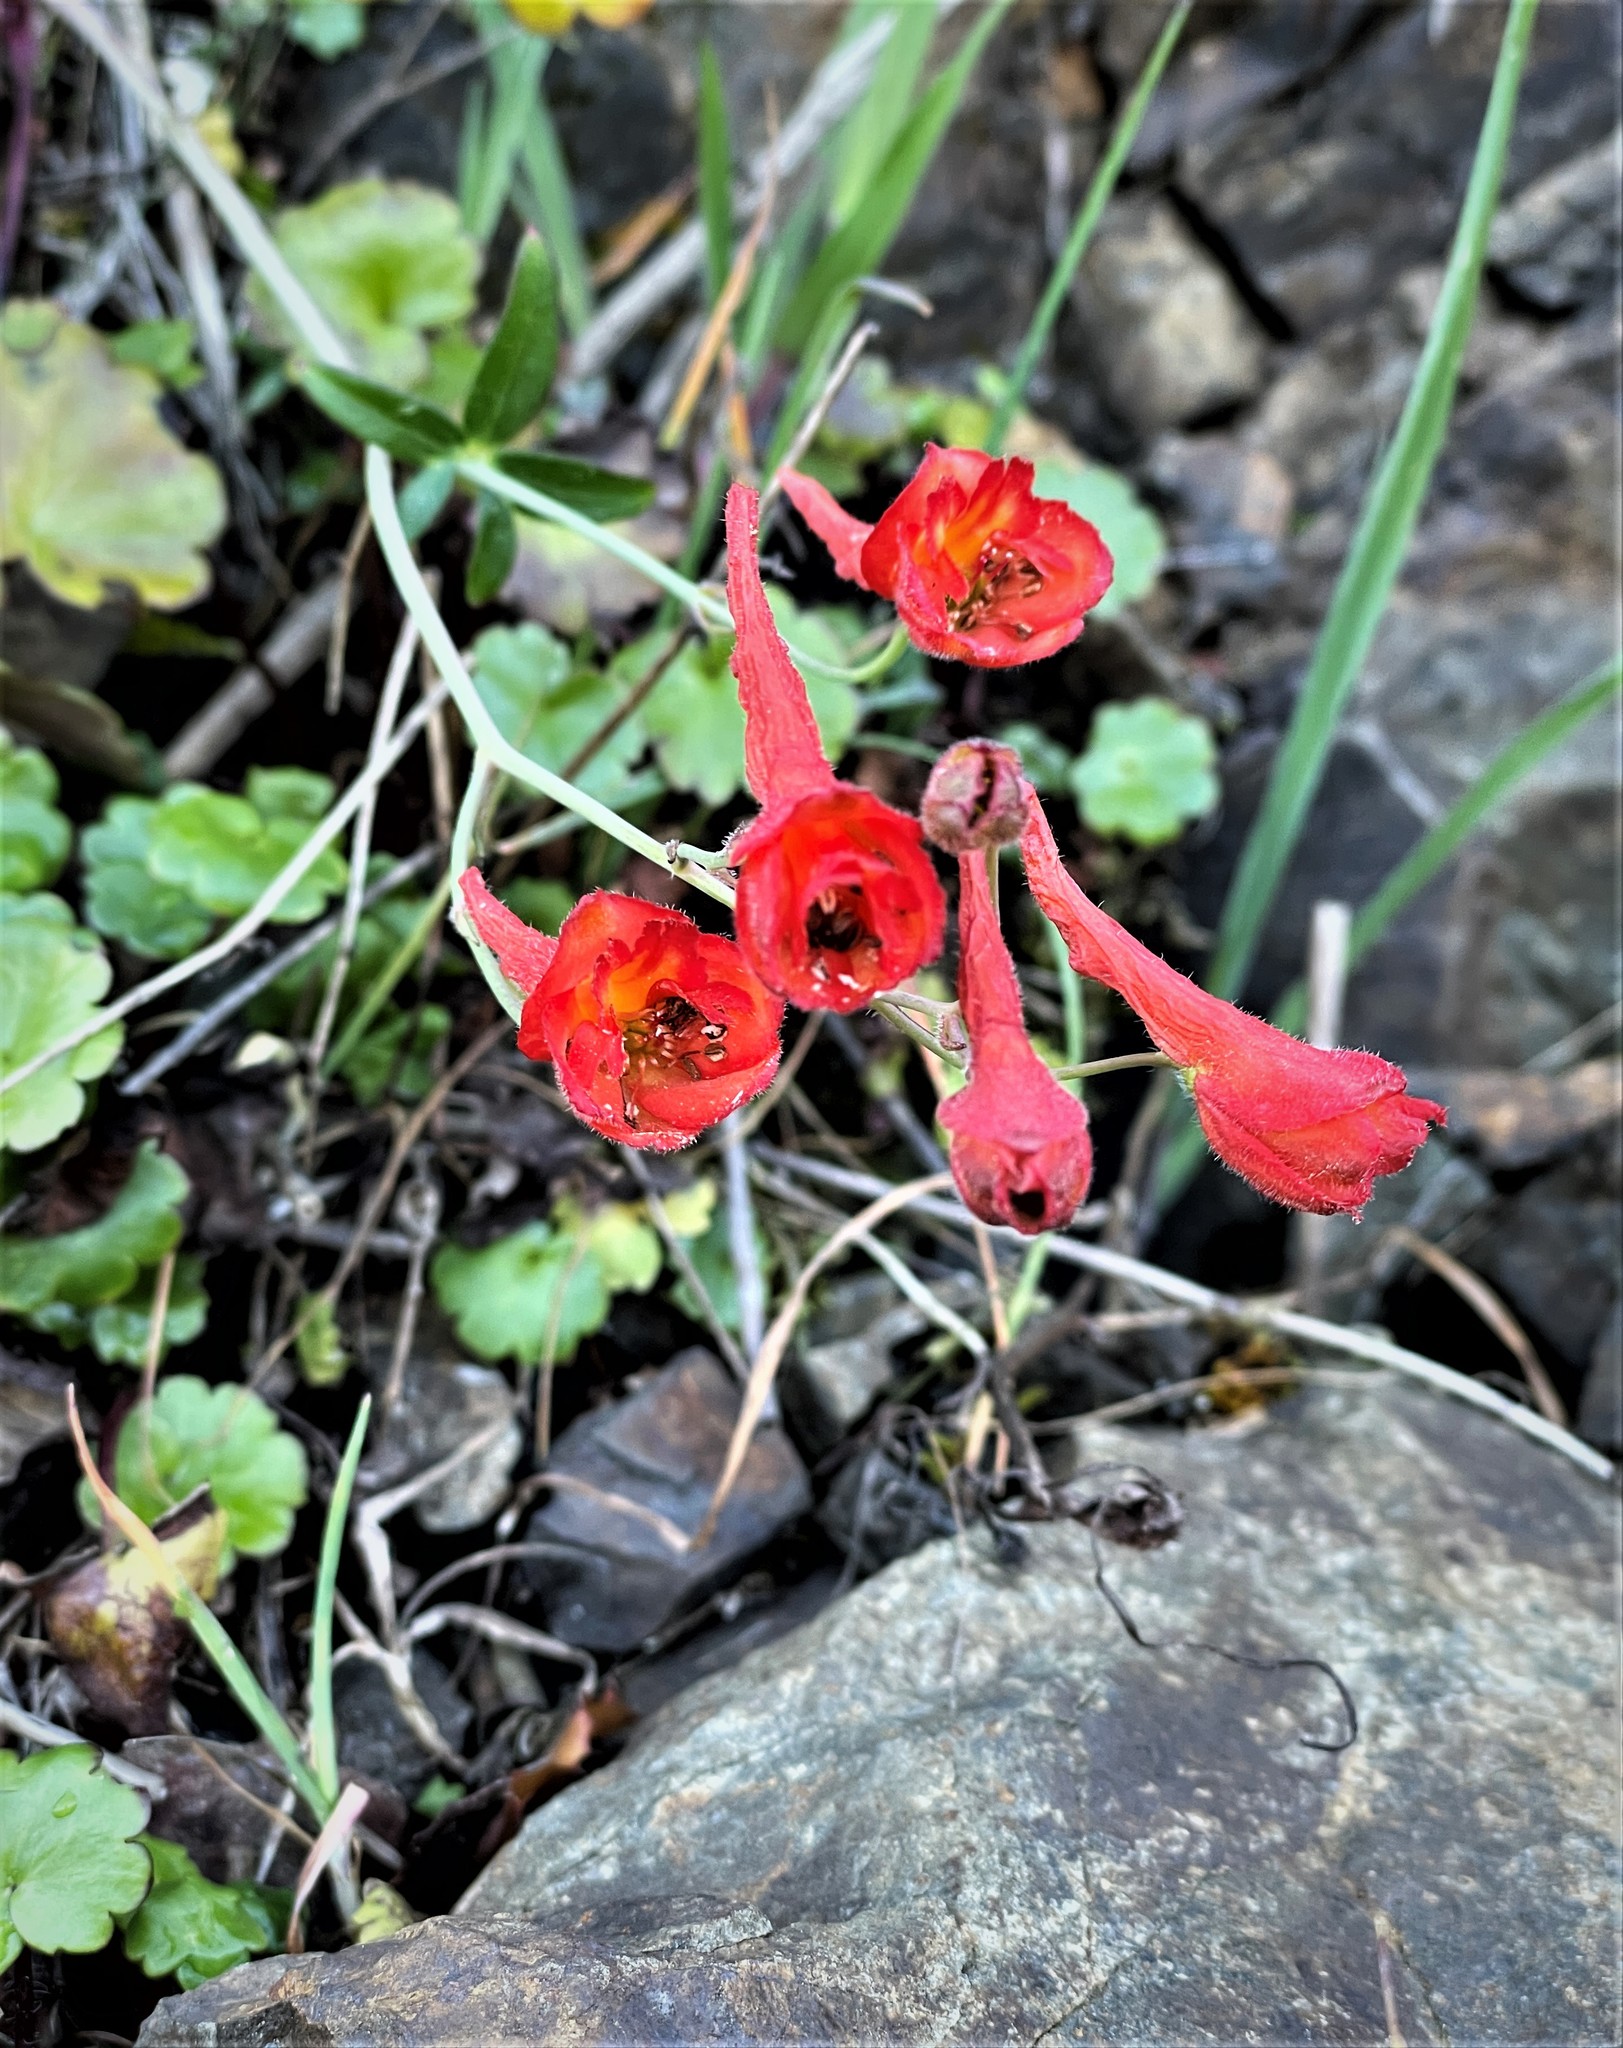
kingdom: Plantae
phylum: Tracheophyta
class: Magnoliopsida
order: Ranunculales
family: Ranunculaceae
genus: Delphinium
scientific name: Delphinium nudicaule
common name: Red larkspur
